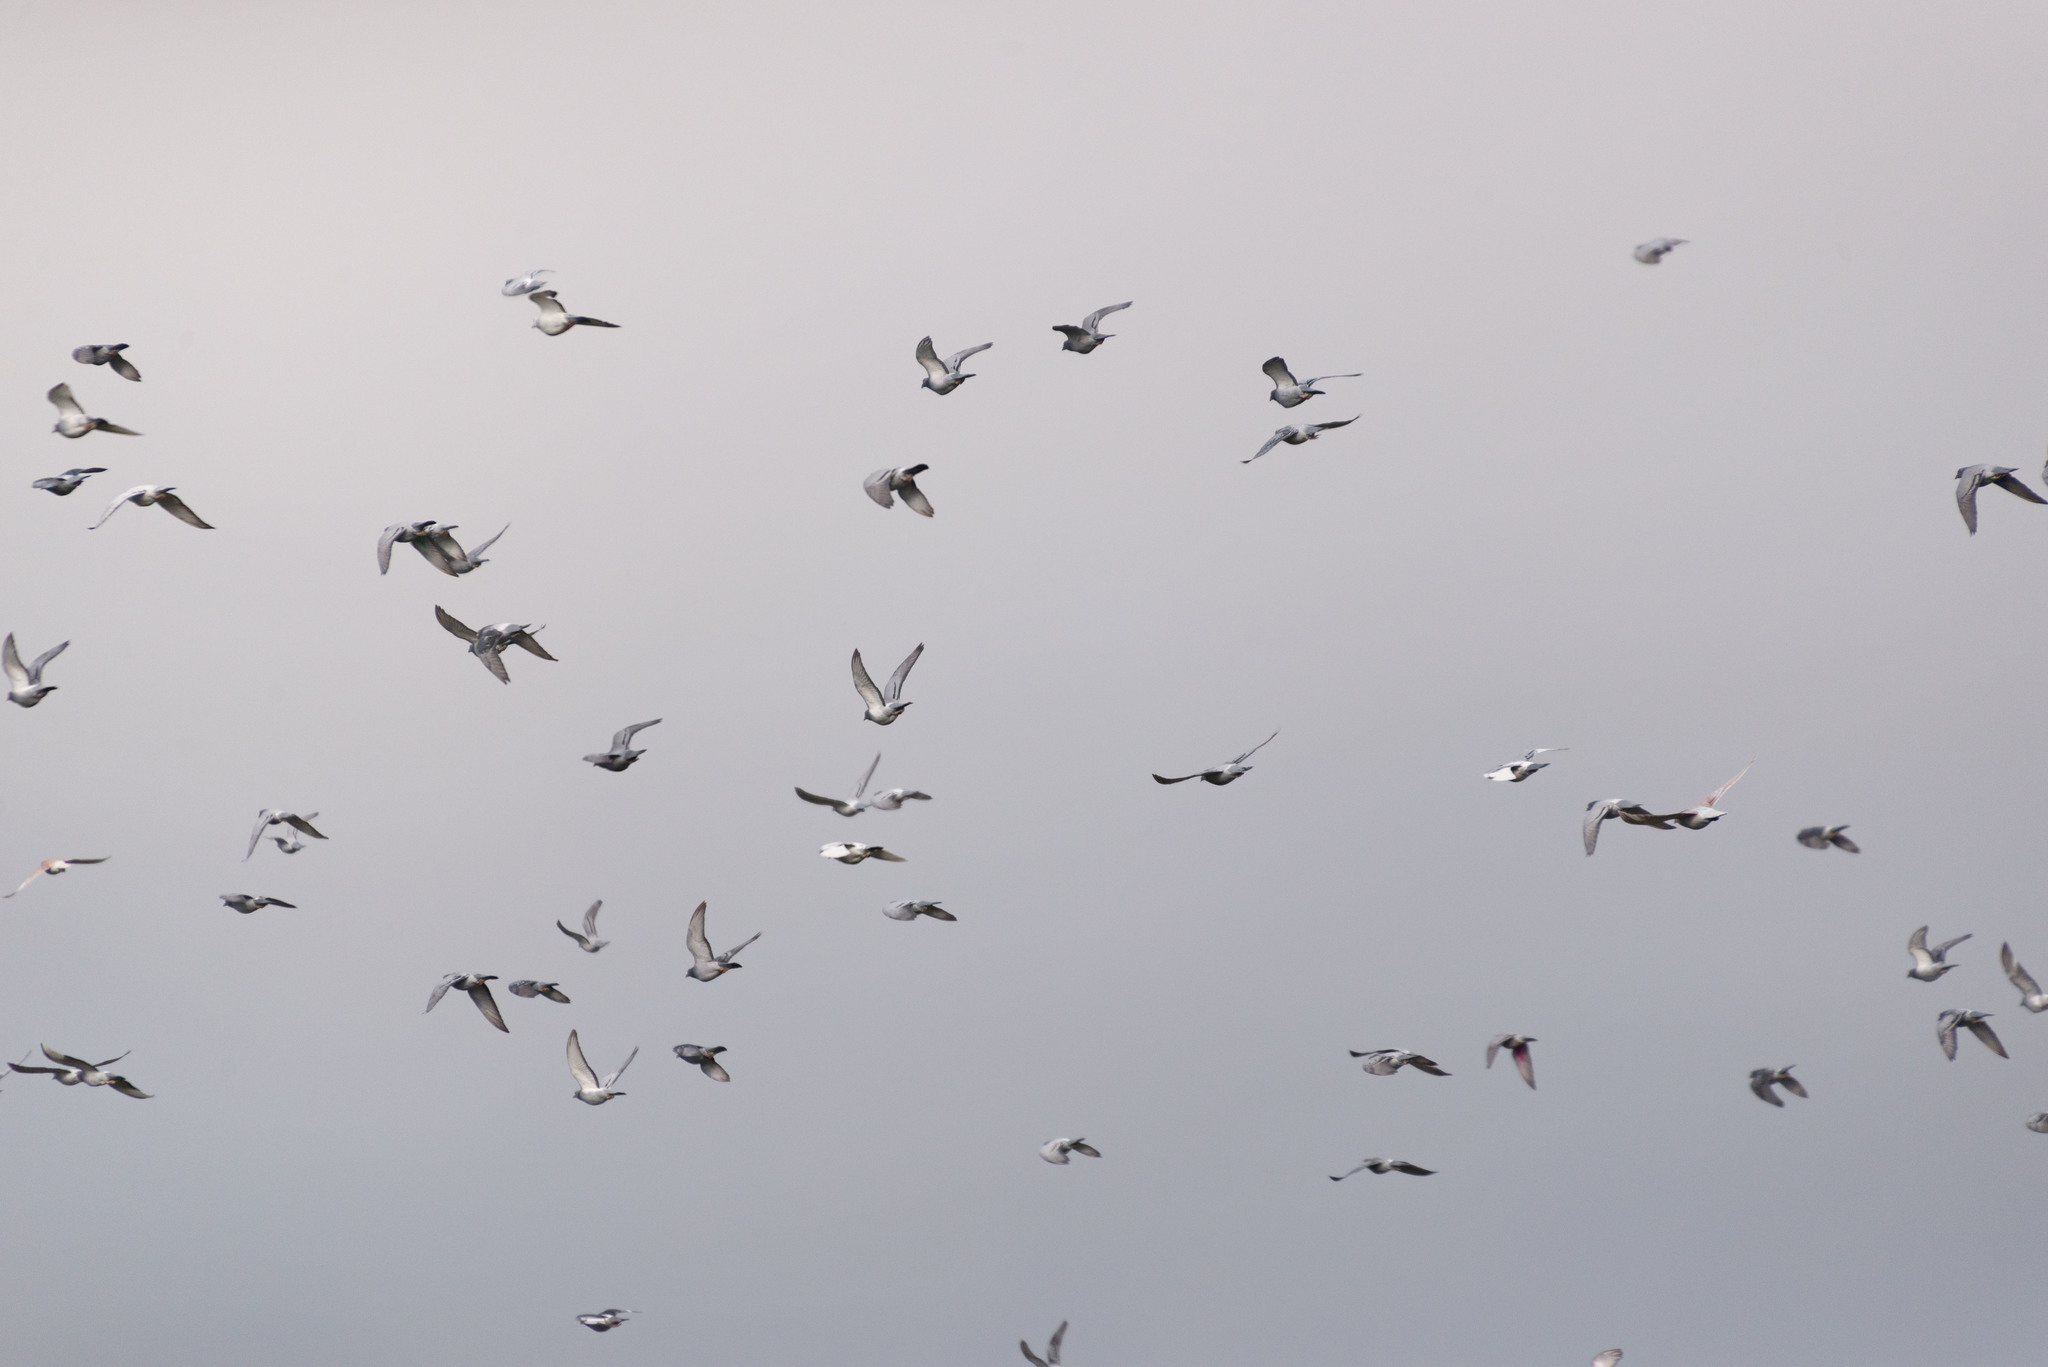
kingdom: Animalia
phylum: Chordata
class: Aves
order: Columbiformes
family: Columbidae
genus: Columba
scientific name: Columba livia
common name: Rock pigeon
